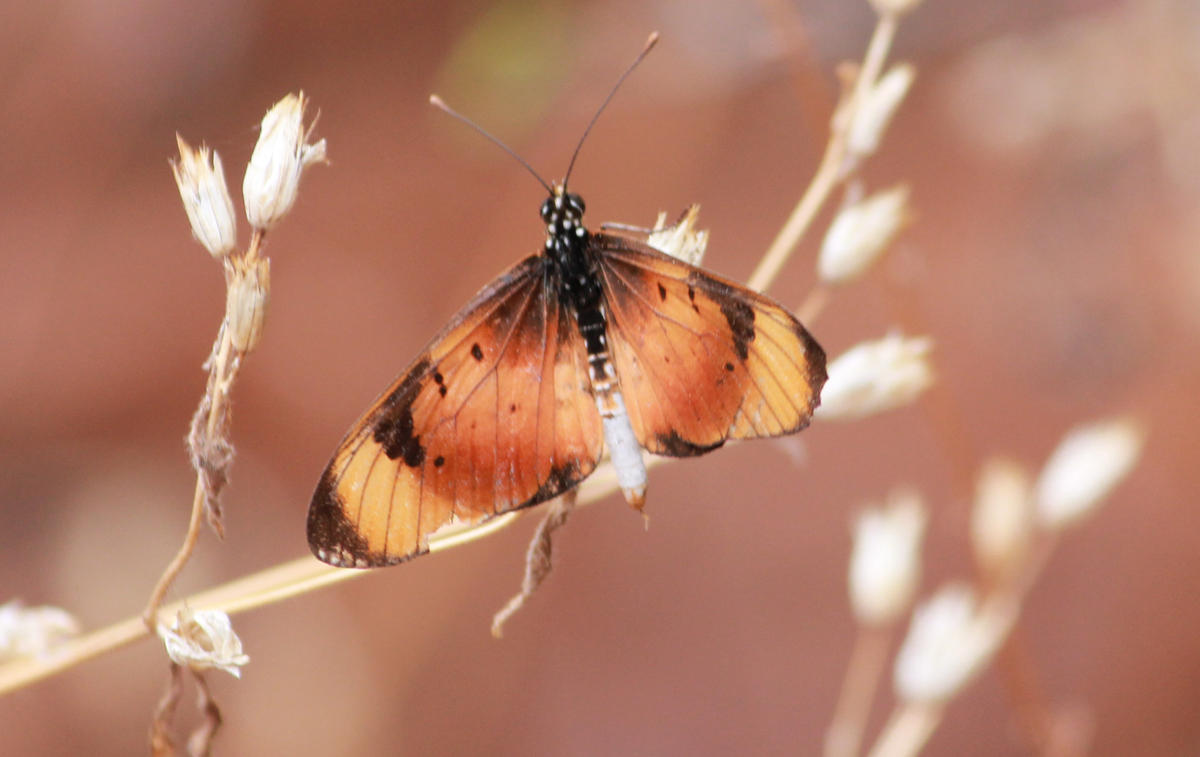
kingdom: Animalia
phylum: Arthropoda
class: Insecta
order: Lepidoptera
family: Nymphalidae
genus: Stephenia
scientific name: Stephenia
